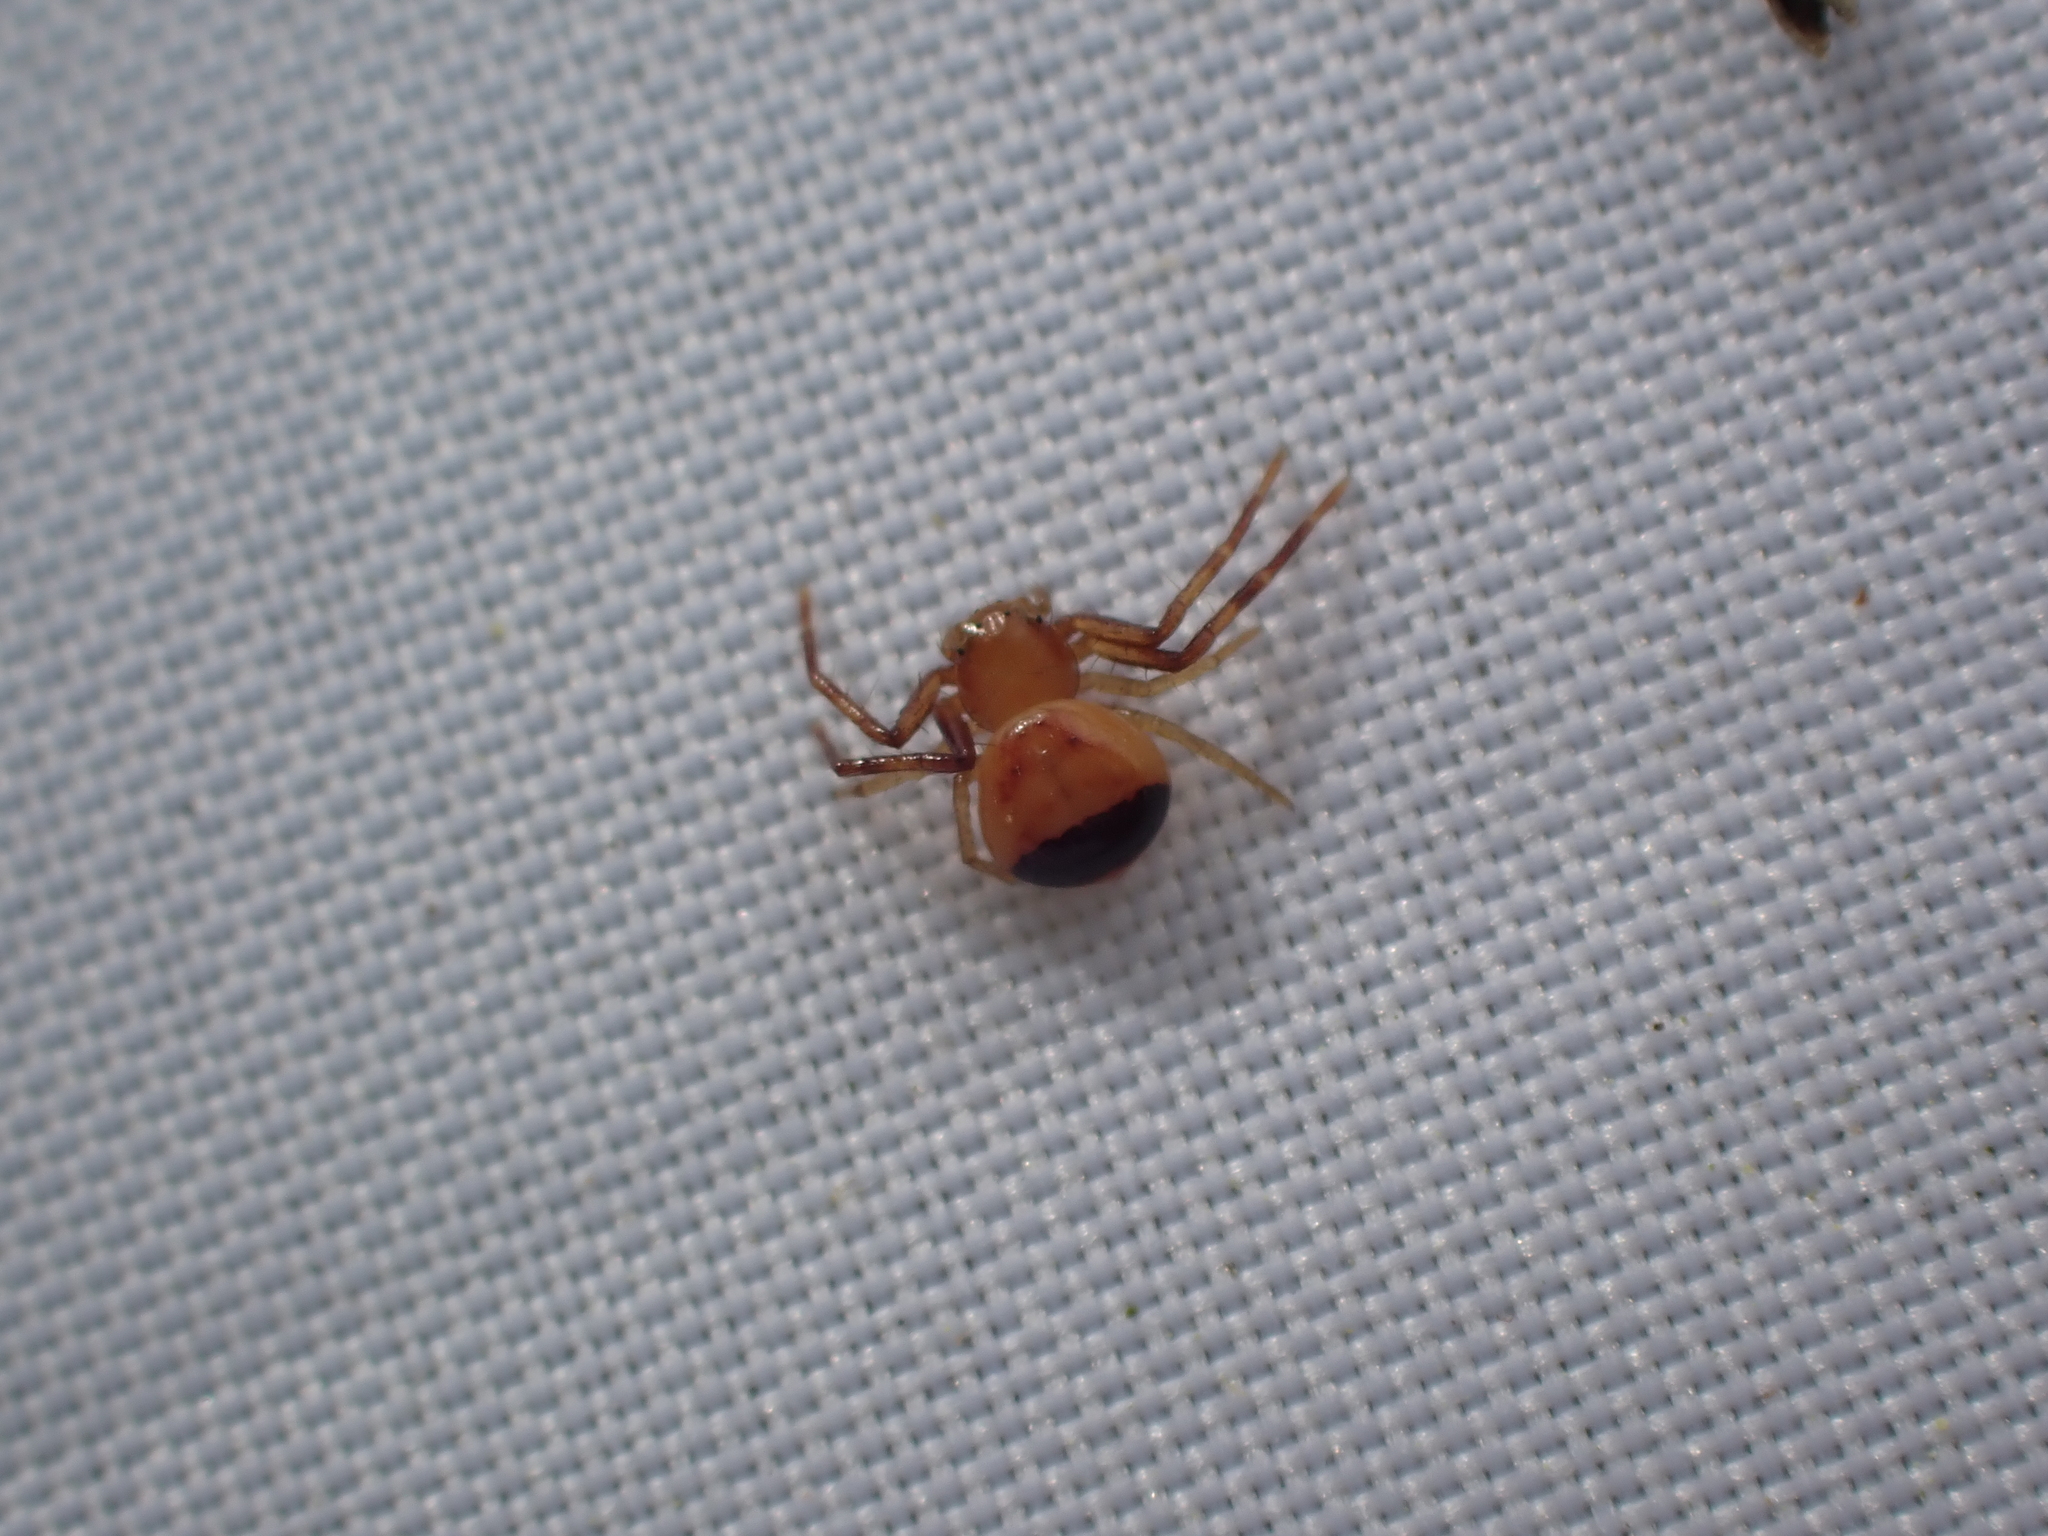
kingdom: Animalia
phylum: Arthropoda
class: Arachnida
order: Araneae
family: Thomisidae
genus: Synema
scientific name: Synema parvulum
